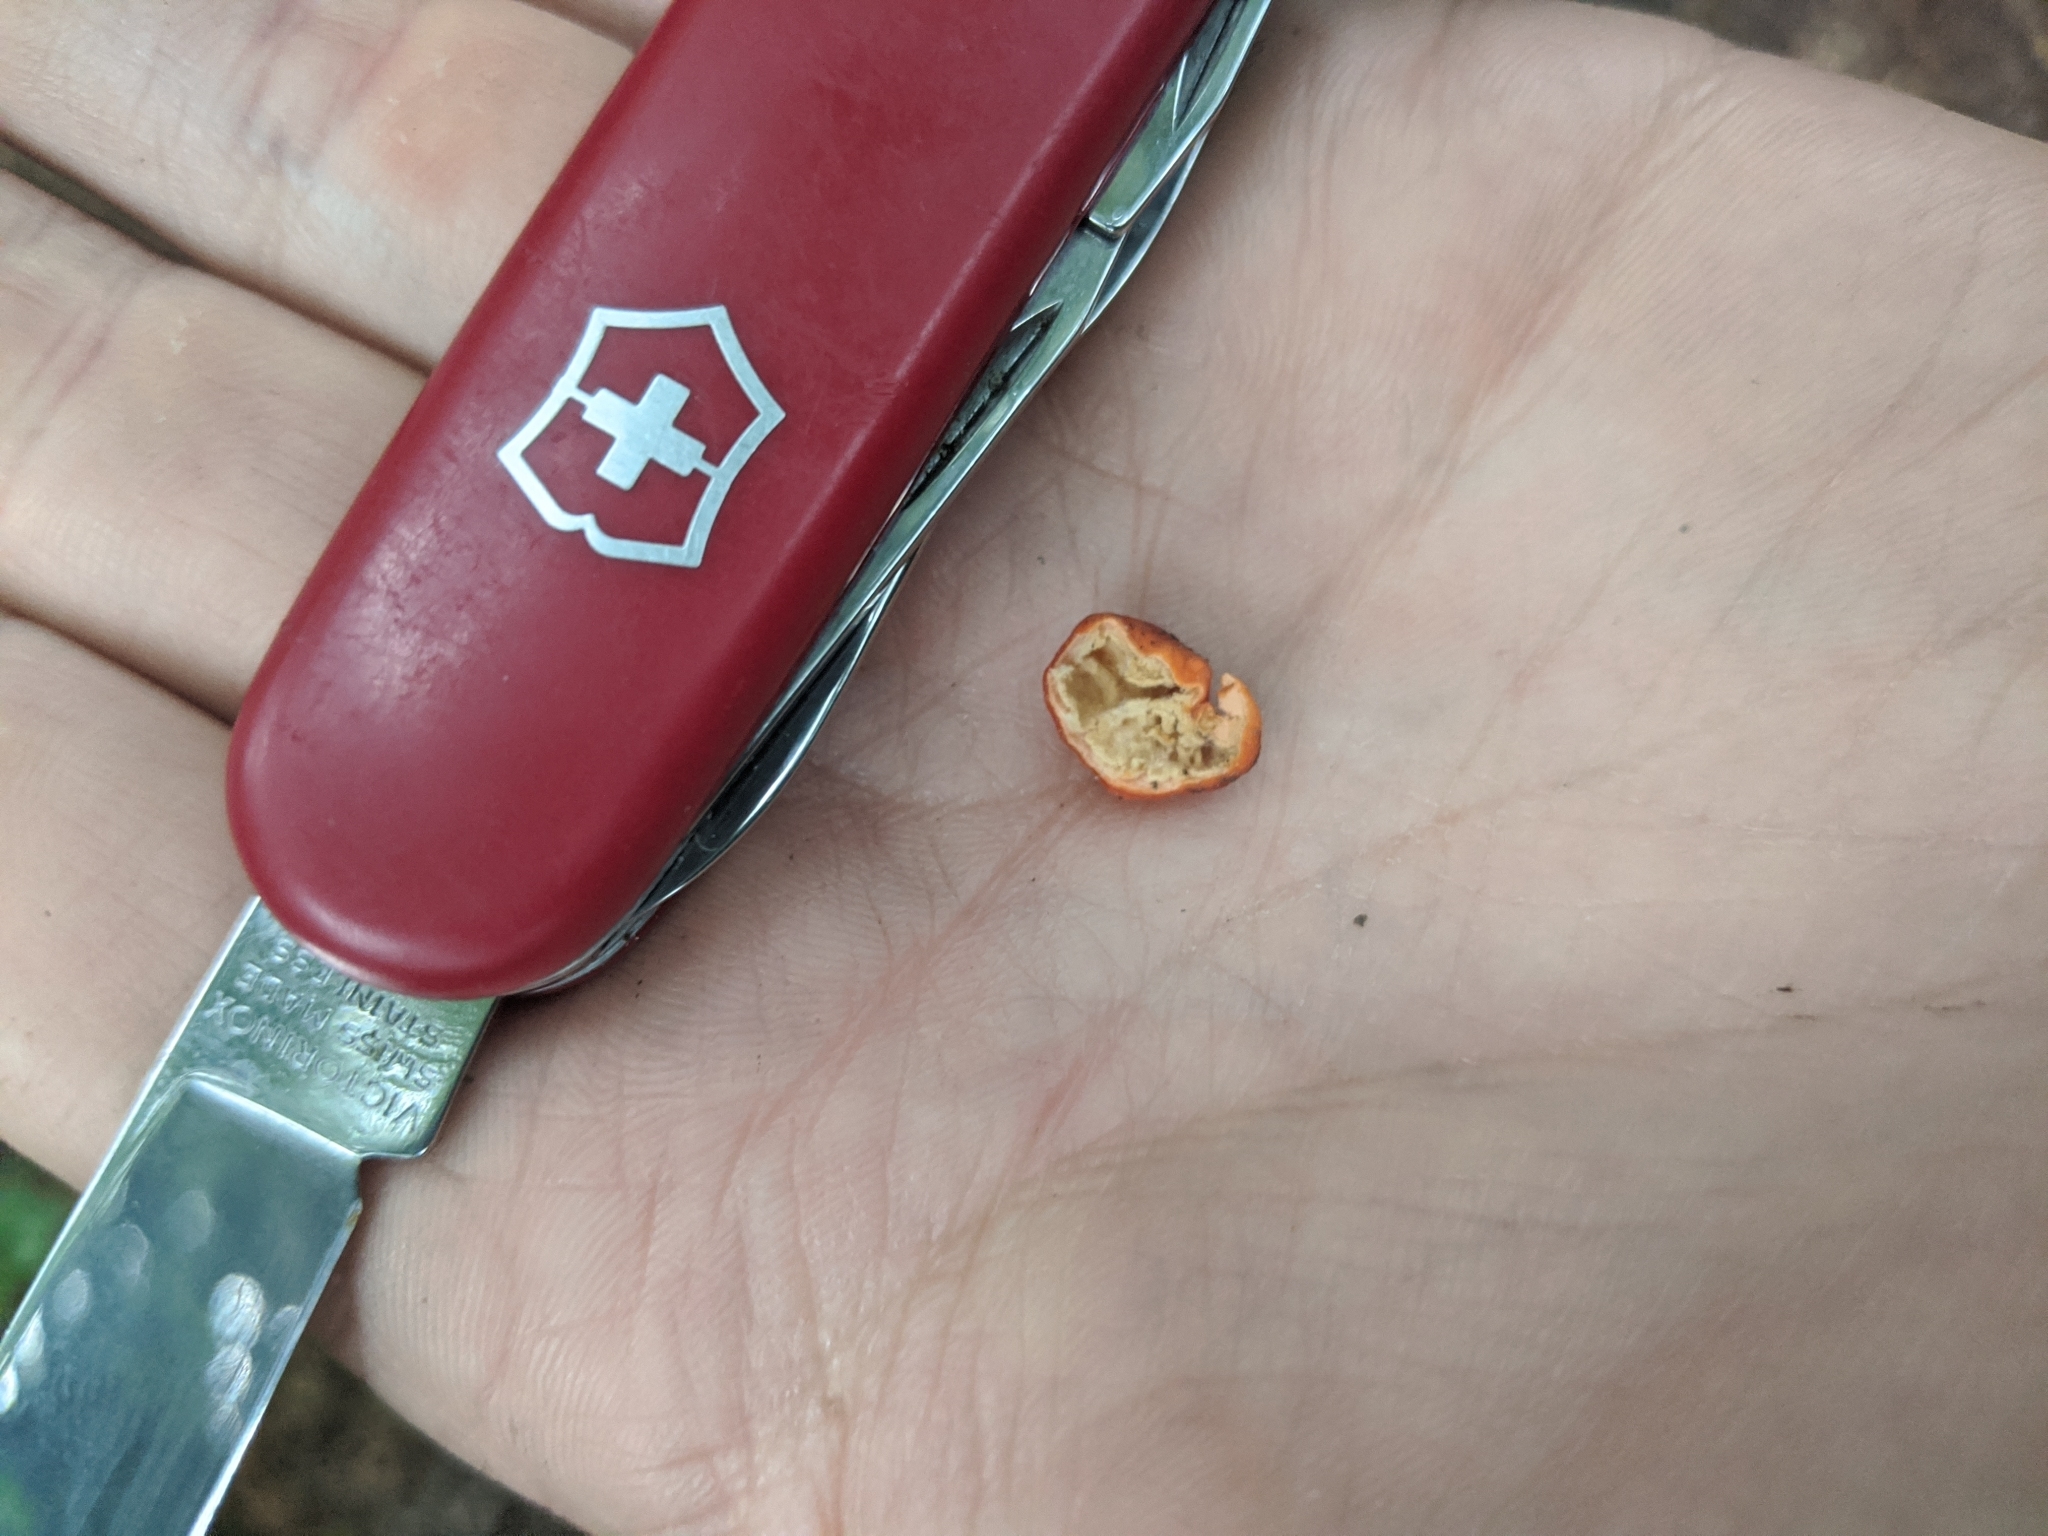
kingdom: Fungi
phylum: Ascomycota
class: Pezizomycetes
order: Pezizales
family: Pyronemataceae
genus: Paurocotylis
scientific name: Paurocotylis pila
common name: Scarlet berry truffle
